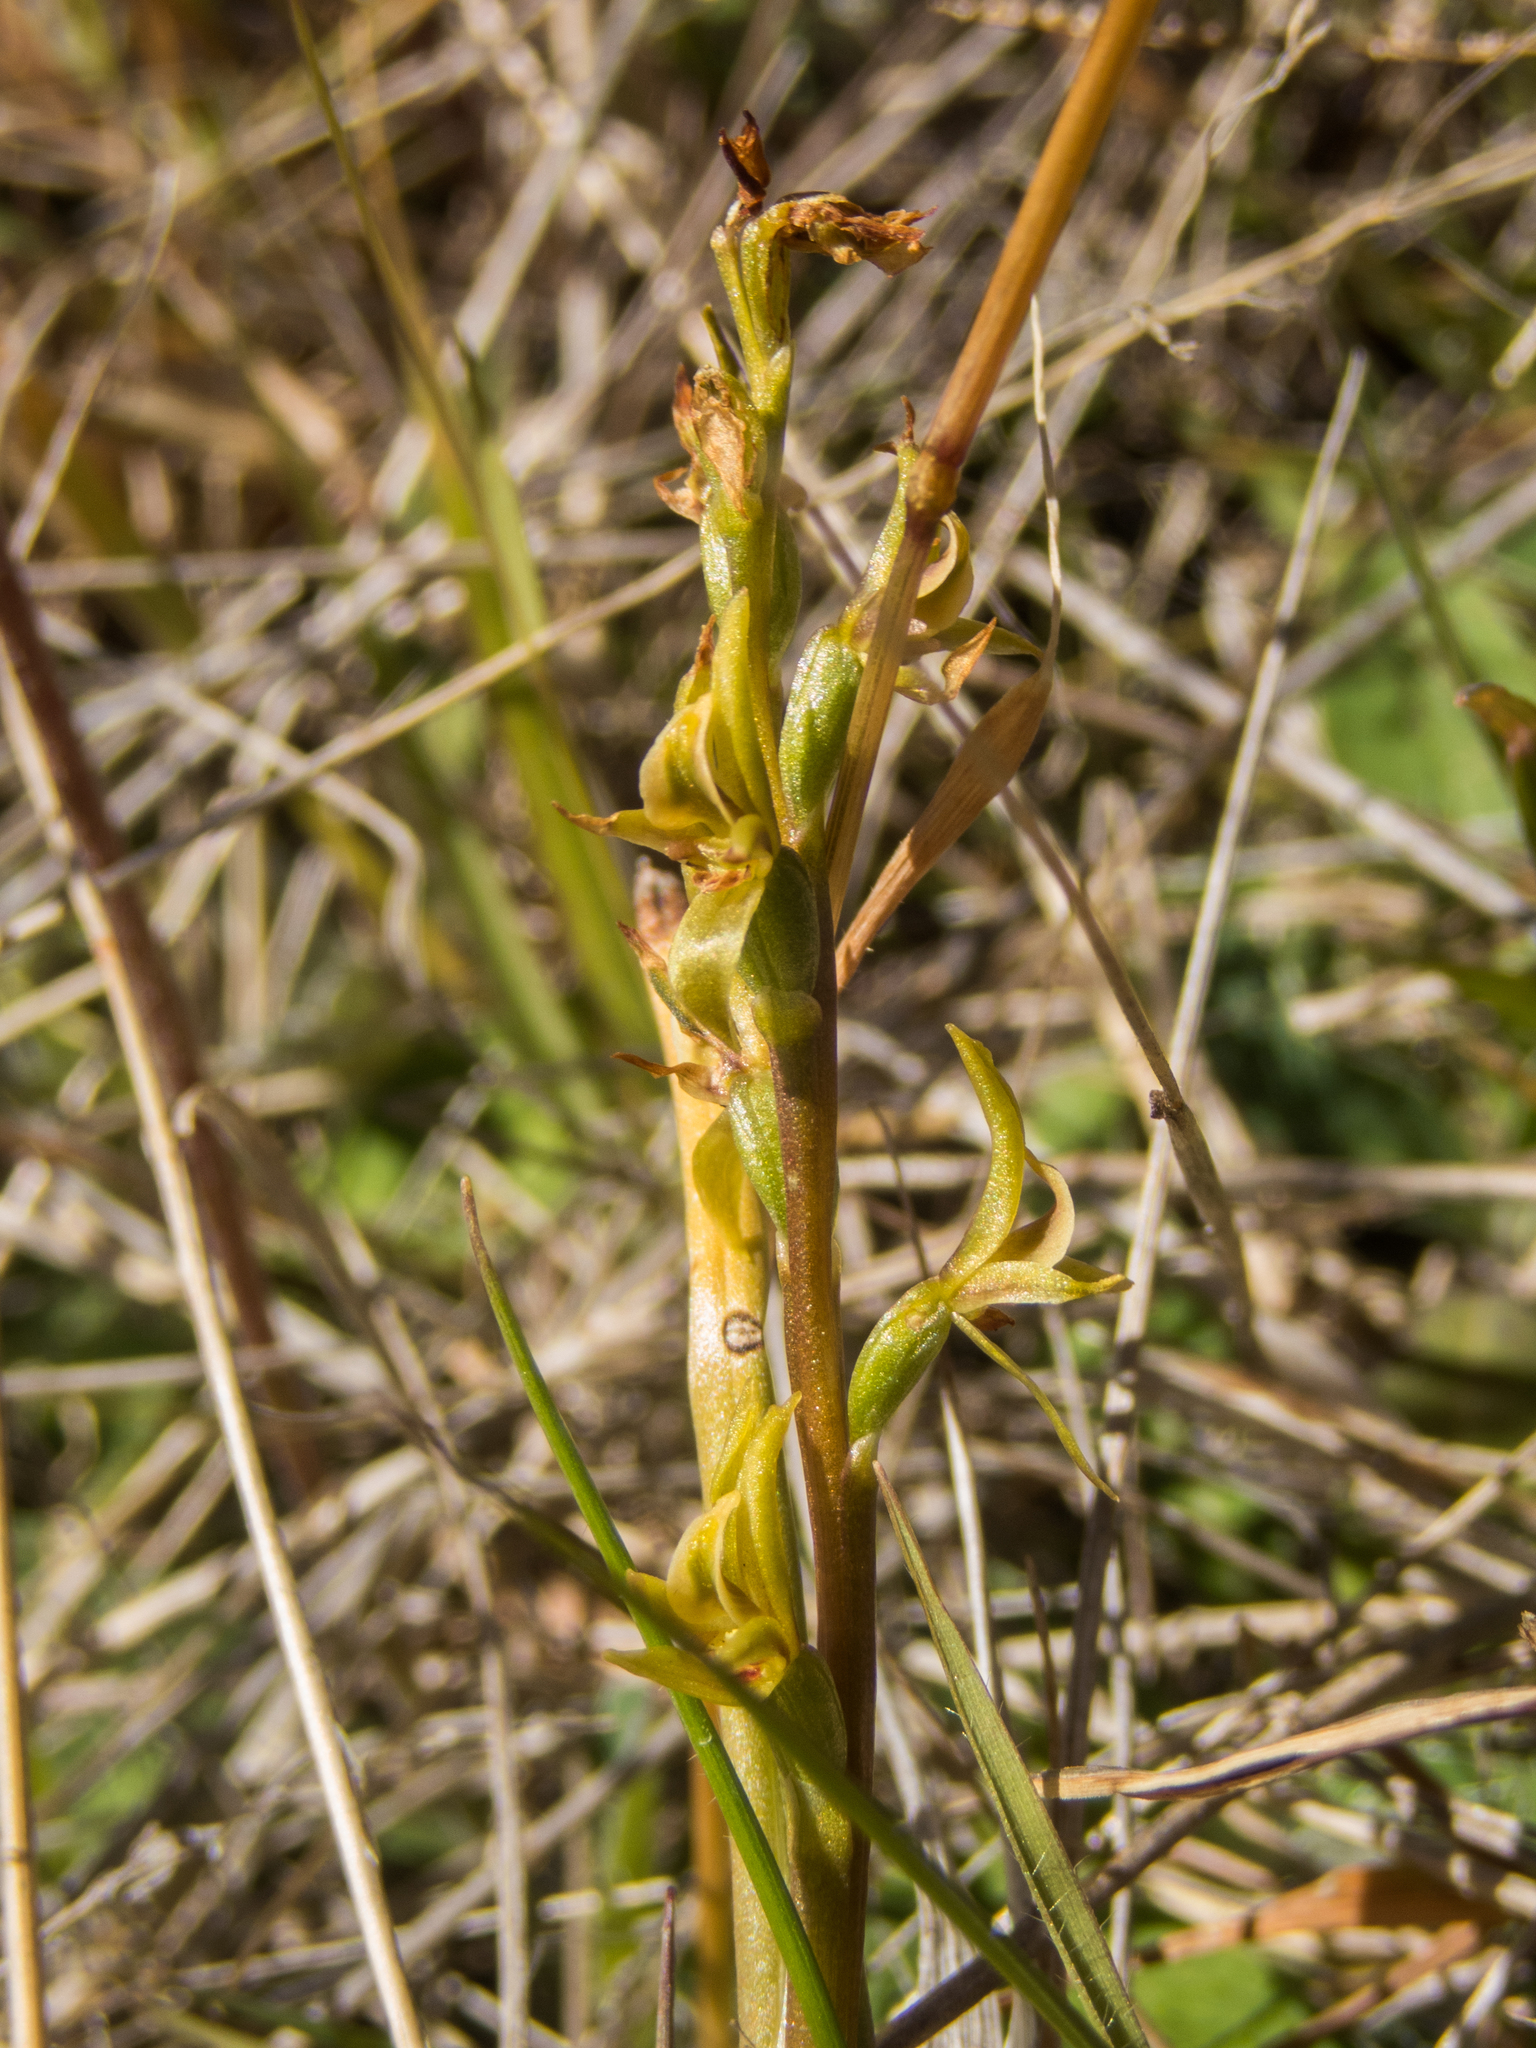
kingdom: Plantae
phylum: Tracheophyta
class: Liliopsida
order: Asparagales
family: Orchidaceae
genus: Prasophyllum
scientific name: Prasophyllum colensoi
